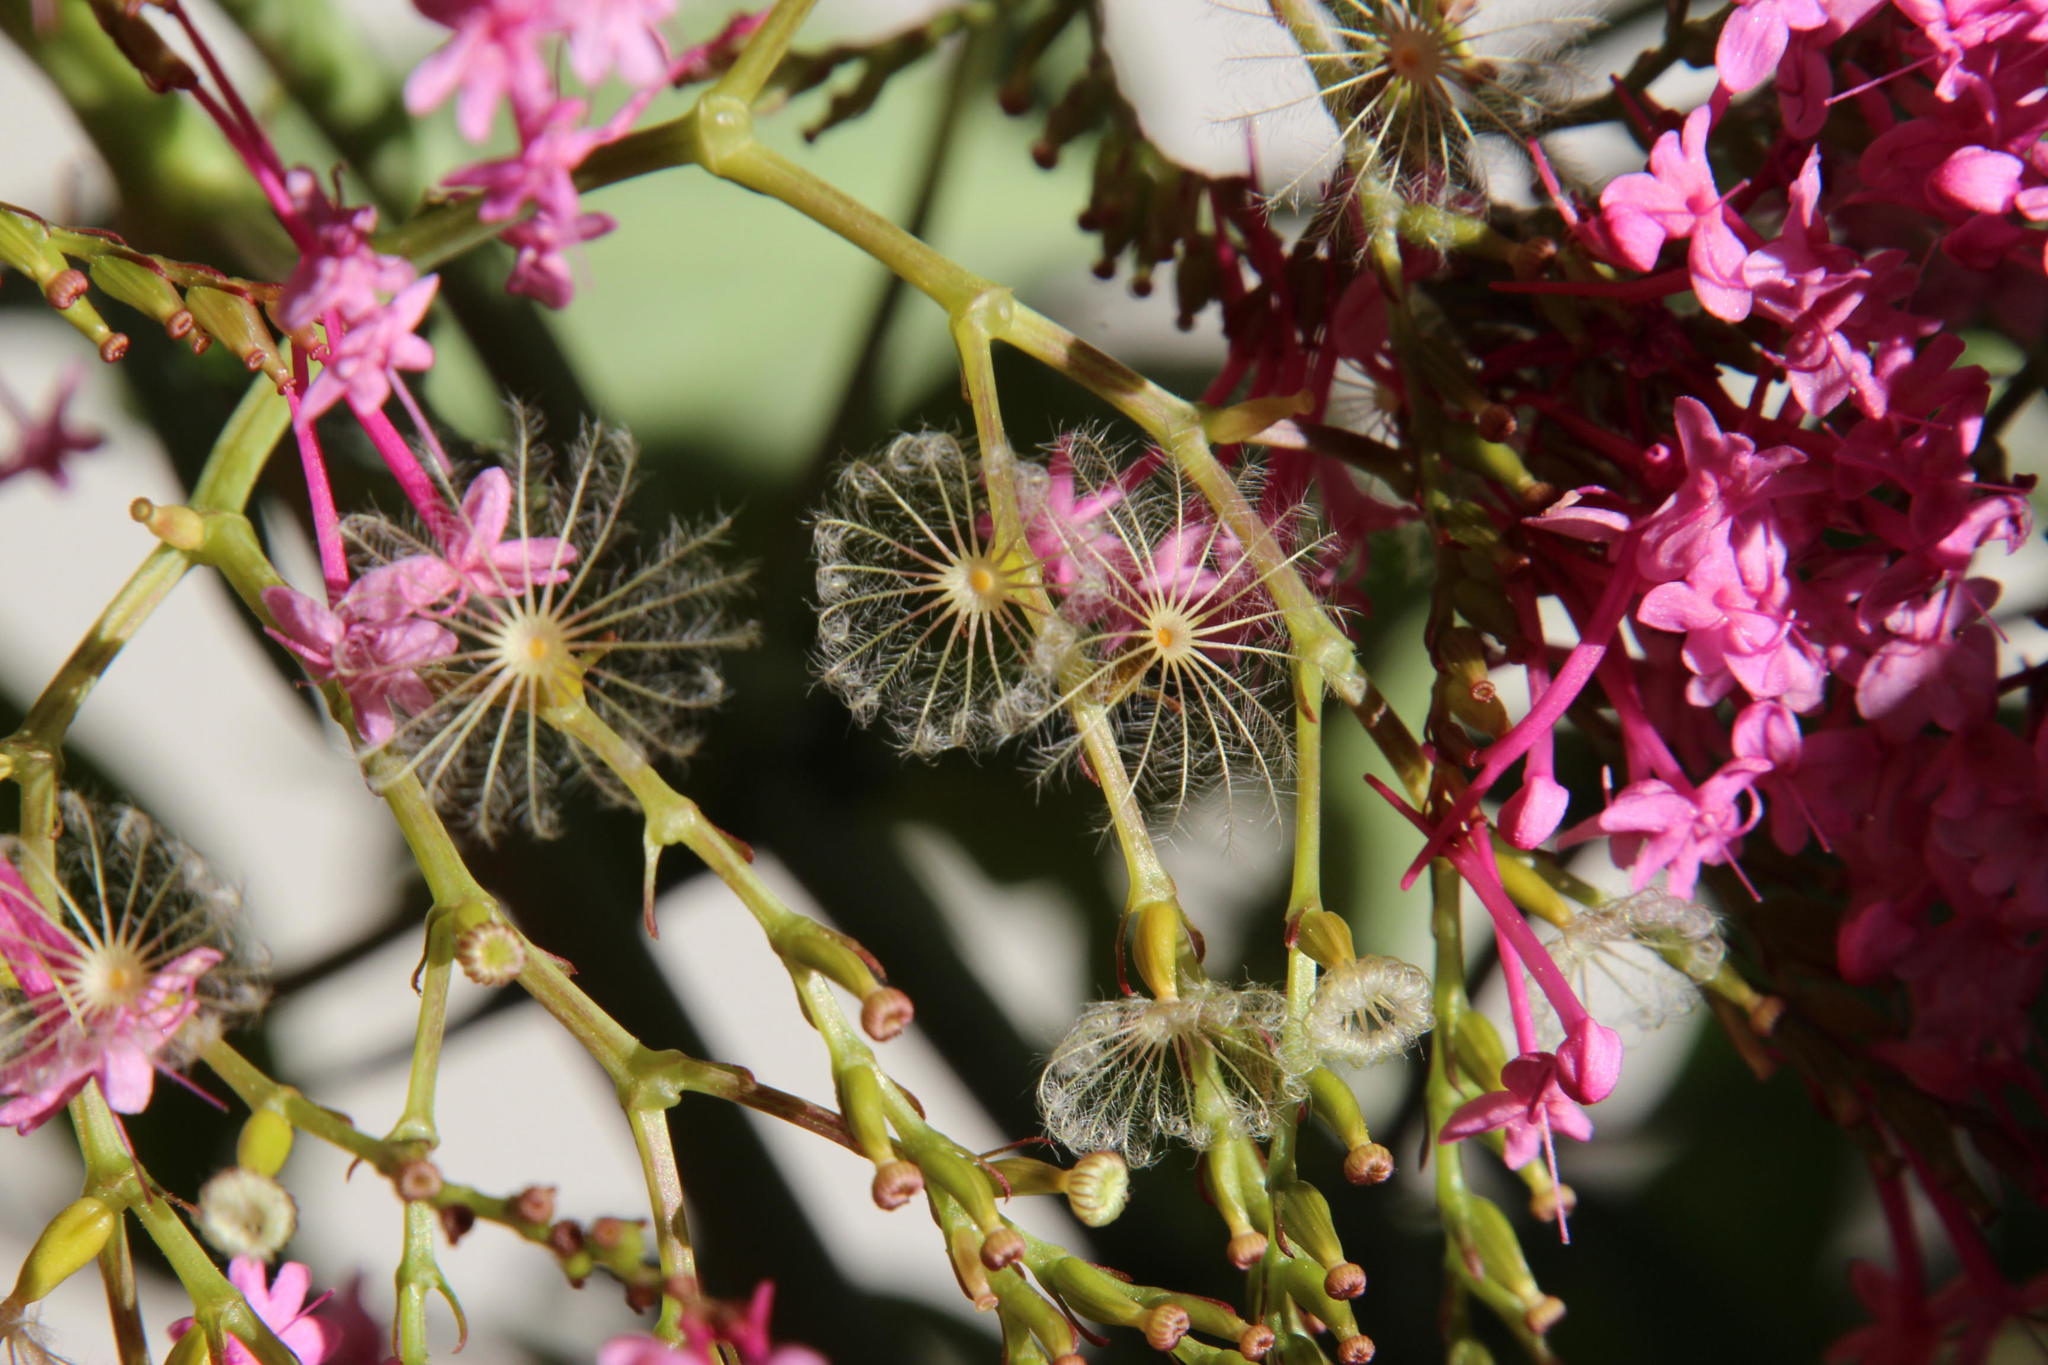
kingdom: Plantae
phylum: Tracheophyta
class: Magnoliopsida
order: Dipsacales
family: Caprifoliaceae
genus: Centranthus
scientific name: Centranthus ruber
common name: Red valerian
